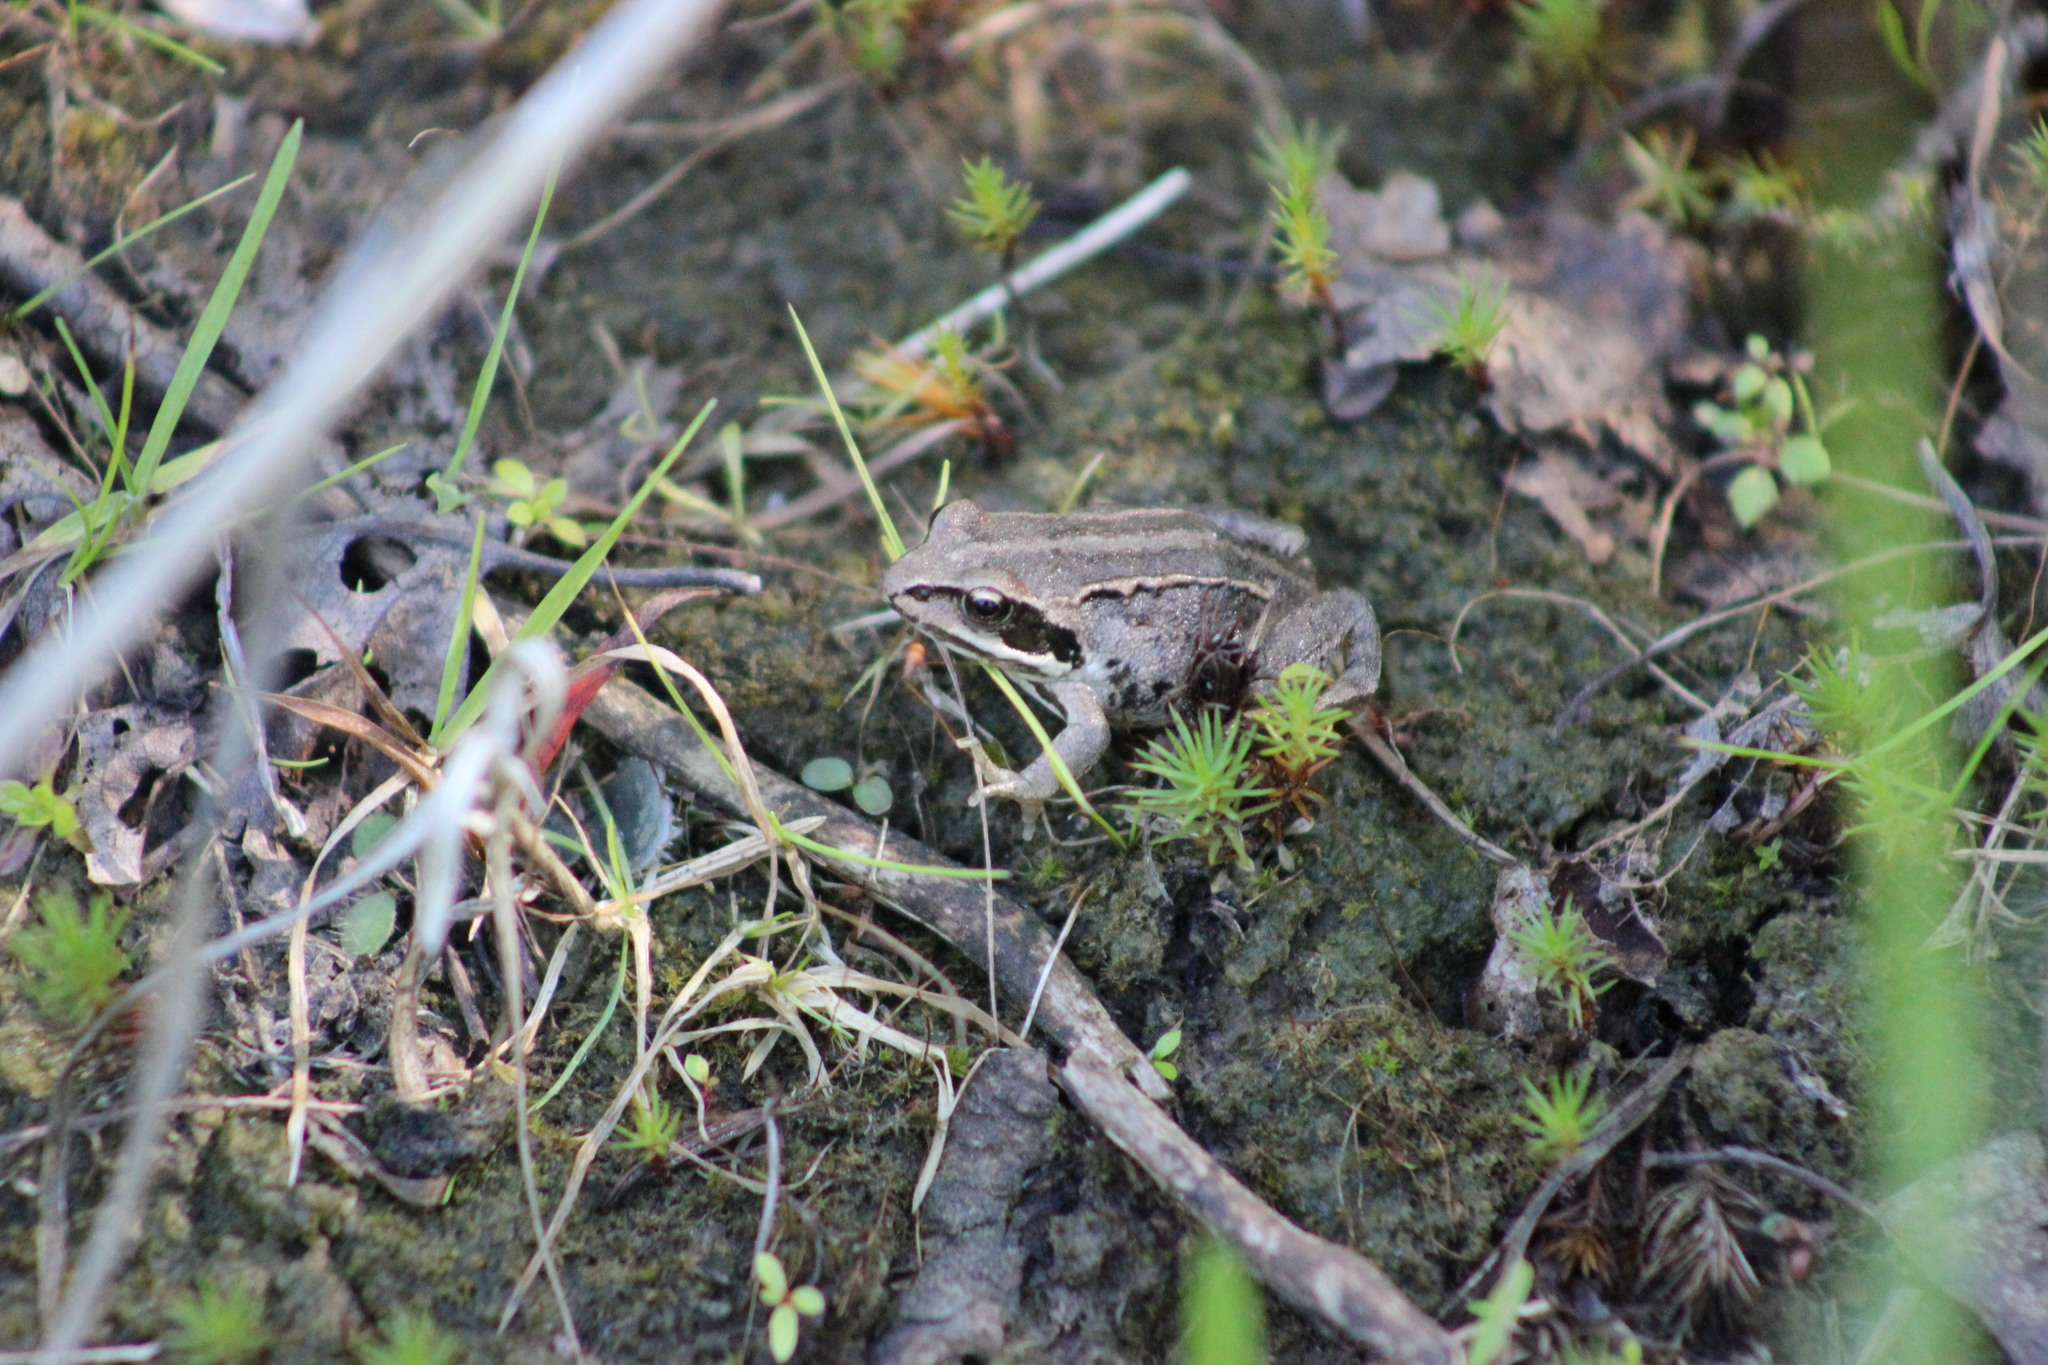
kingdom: Animalia
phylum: Chordata
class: Amphibia
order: Anura
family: Ranidae
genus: Rana
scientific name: Rana arvalis
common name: Moor frog
